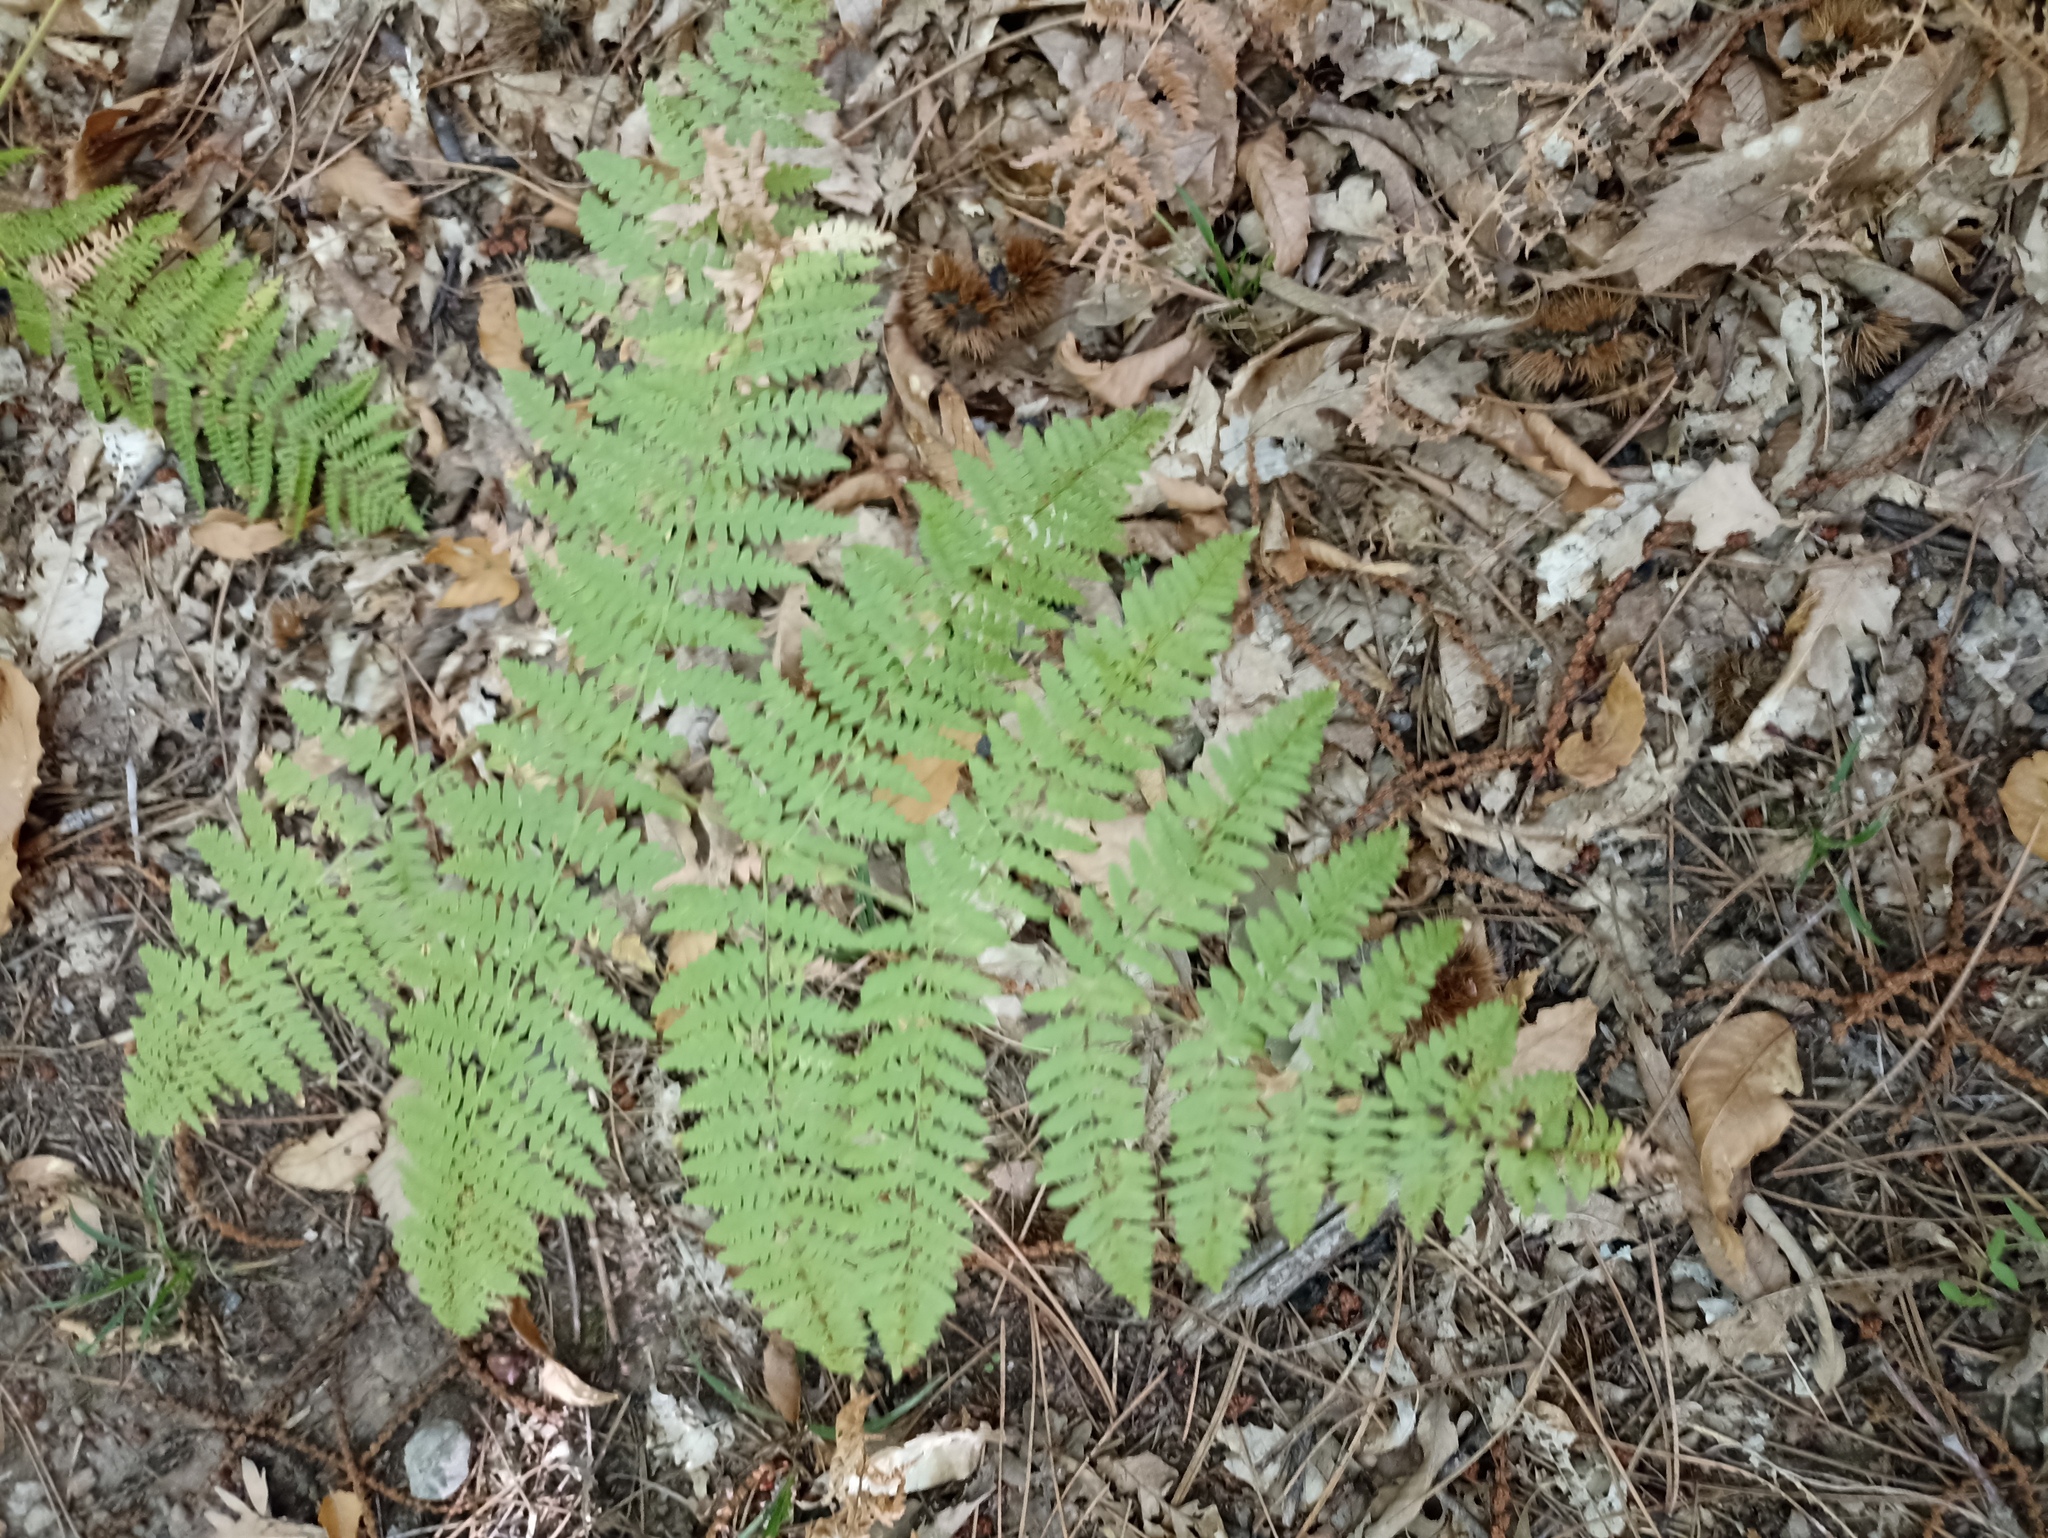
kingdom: Plantae
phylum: Tracheophyta
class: Polypodiopsida
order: Polypodiales
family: Dennstaedtiaceae
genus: Pteridium
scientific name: Pteridium aquilinum
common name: Bracken
